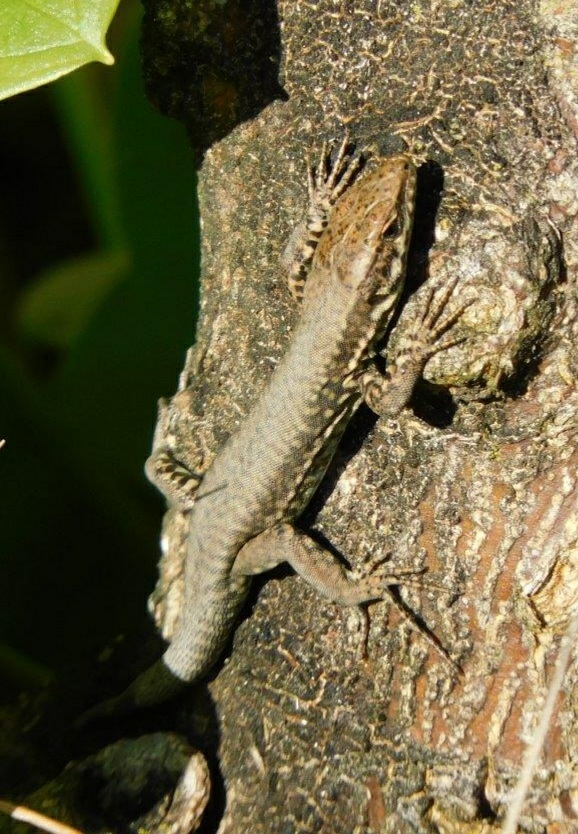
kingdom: Animalia
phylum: Chordata
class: Squamata
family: Lacertidae
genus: Podarcis
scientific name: Podarcis muralis
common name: Common wall lizard
